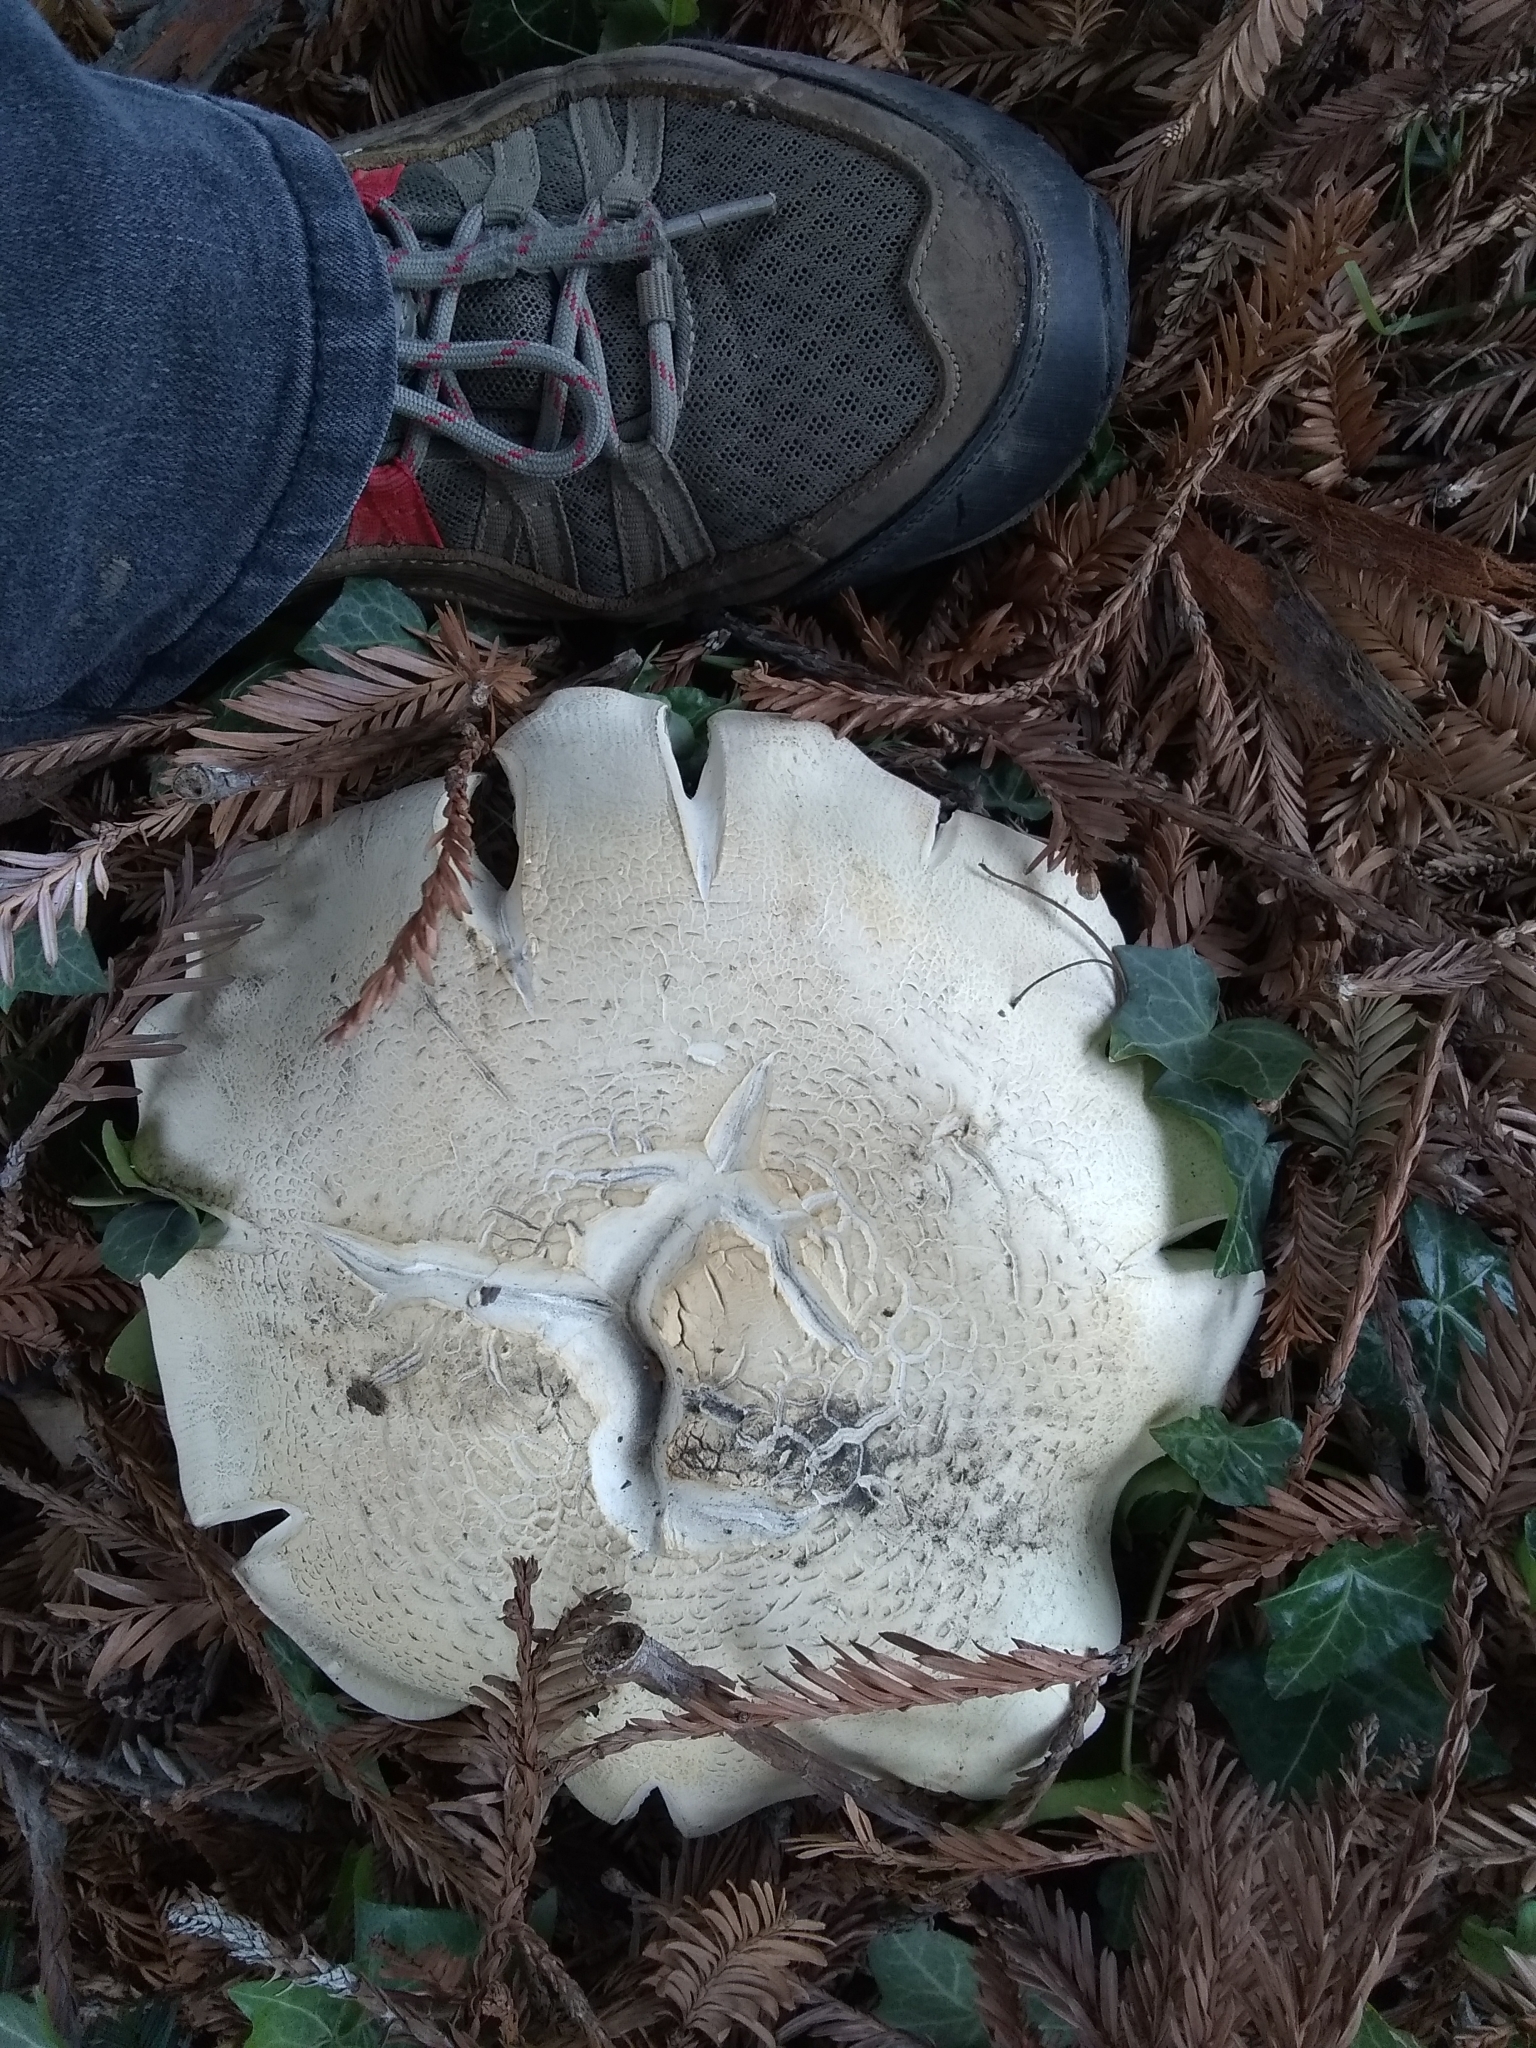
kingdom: Fungi
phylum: Basidiomycota
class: Agaricomycetes
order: Agaricales
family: Tricholomataceae
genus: Leucopaxillus
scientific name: Leucopaxillus albissimus
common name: Large white leucopax
